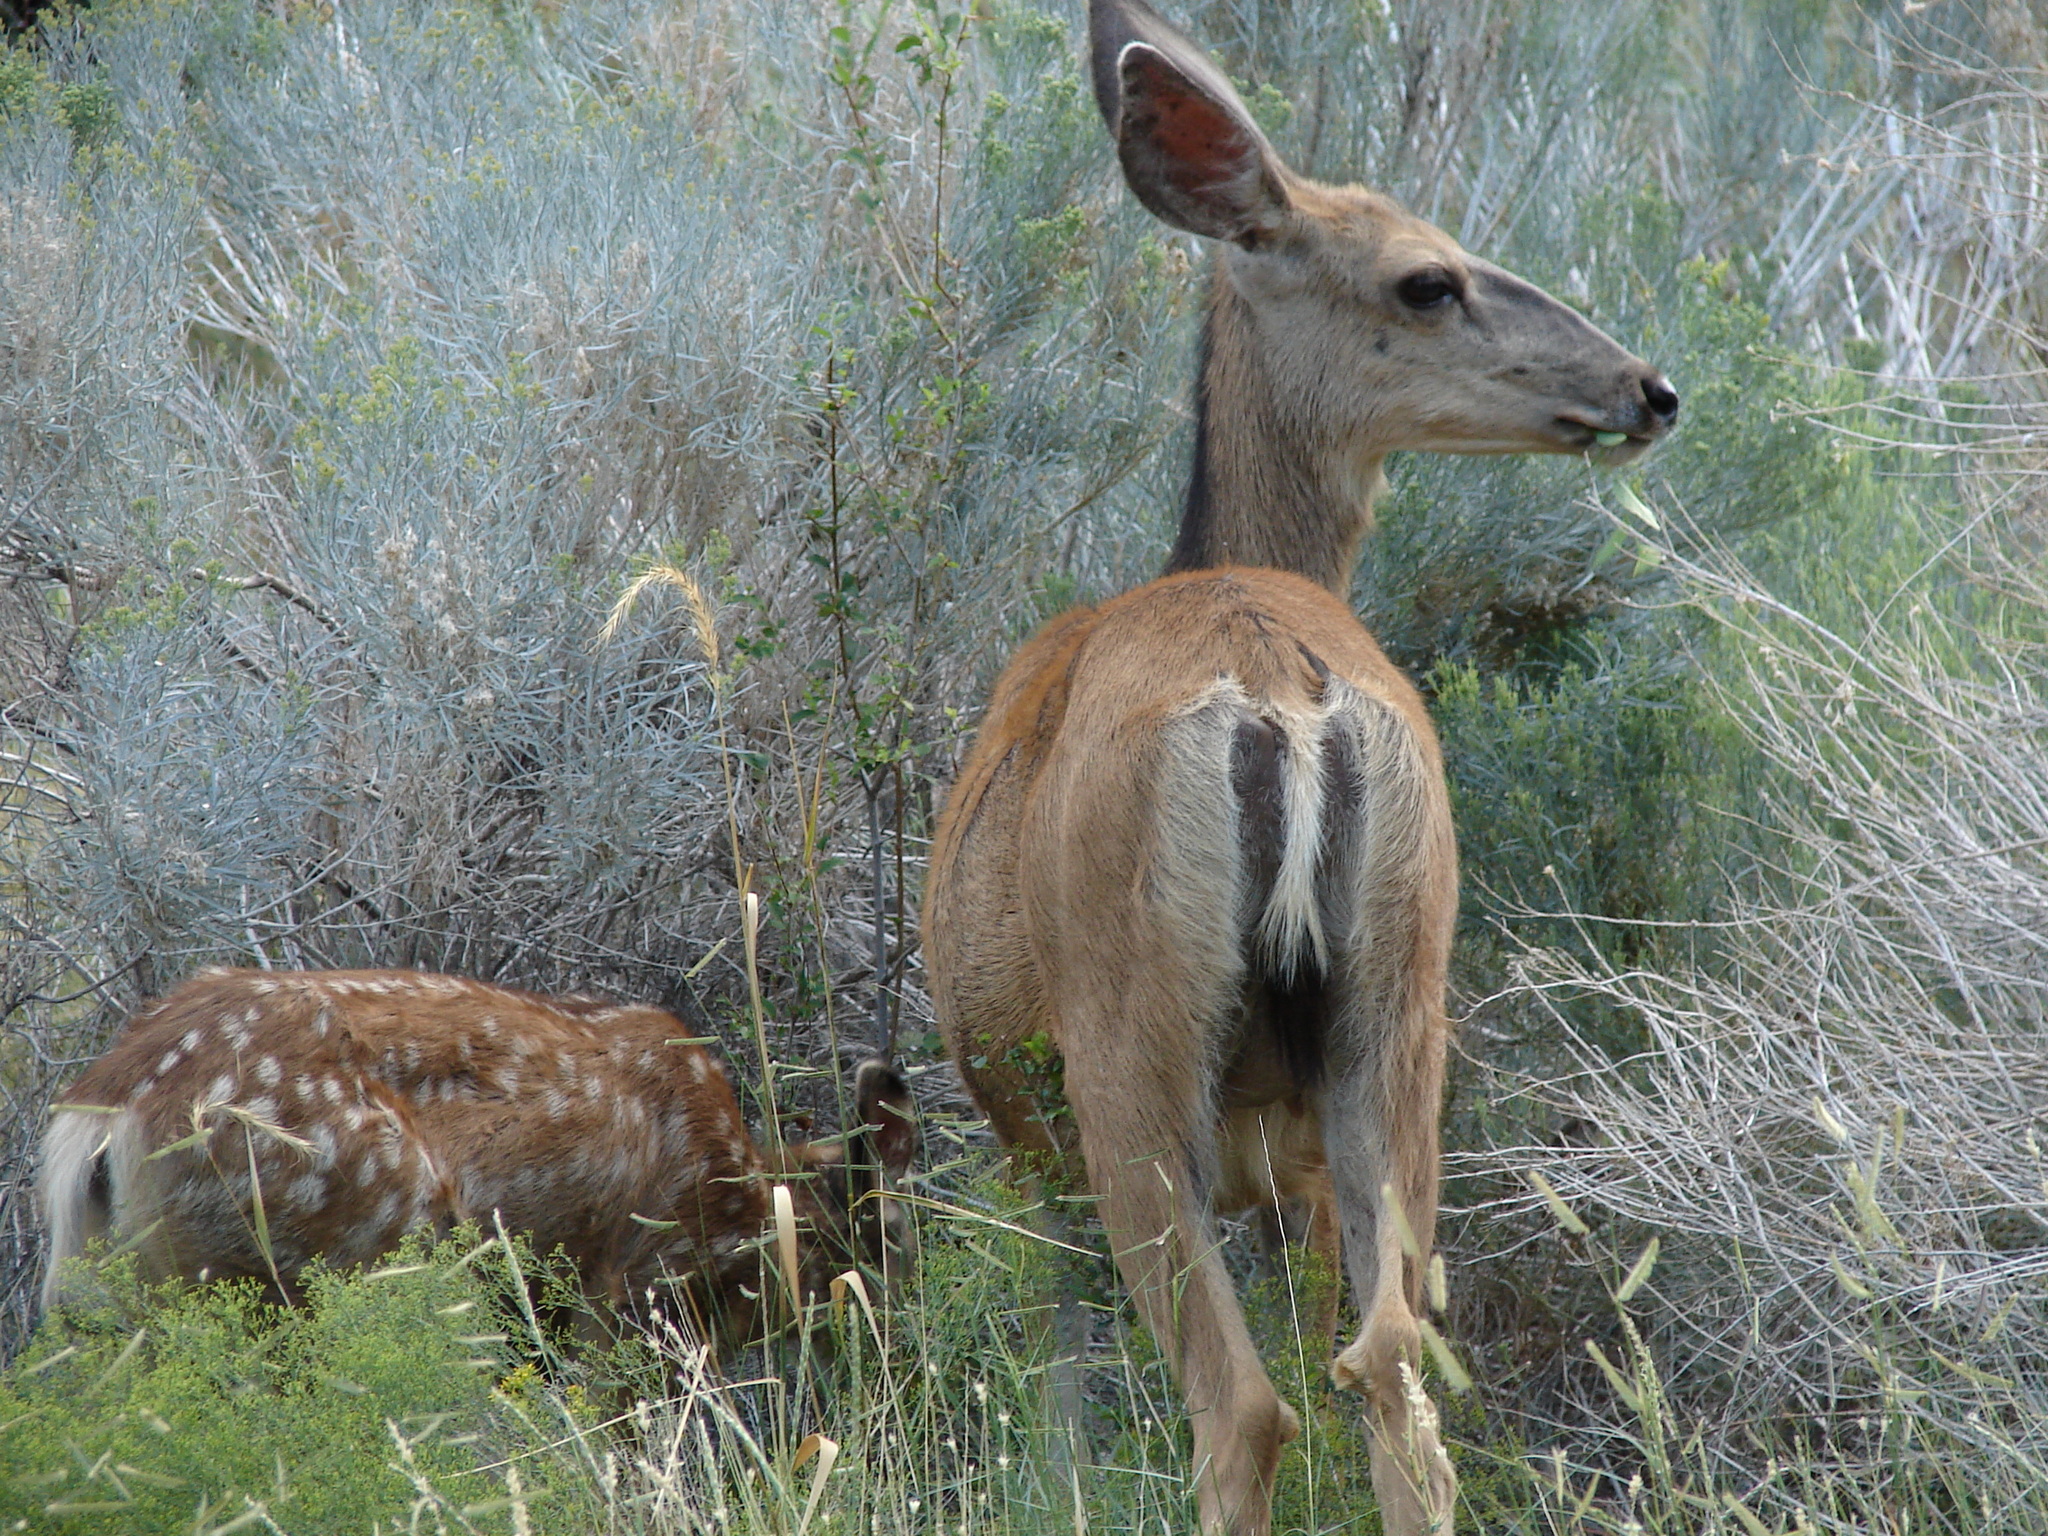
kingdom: Animalia
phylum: Chordata
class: Mammalia
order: Artiodactyla
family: Cervidae
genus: Odocoileus
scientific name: Odocoileus hemionus
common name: Mule deer
